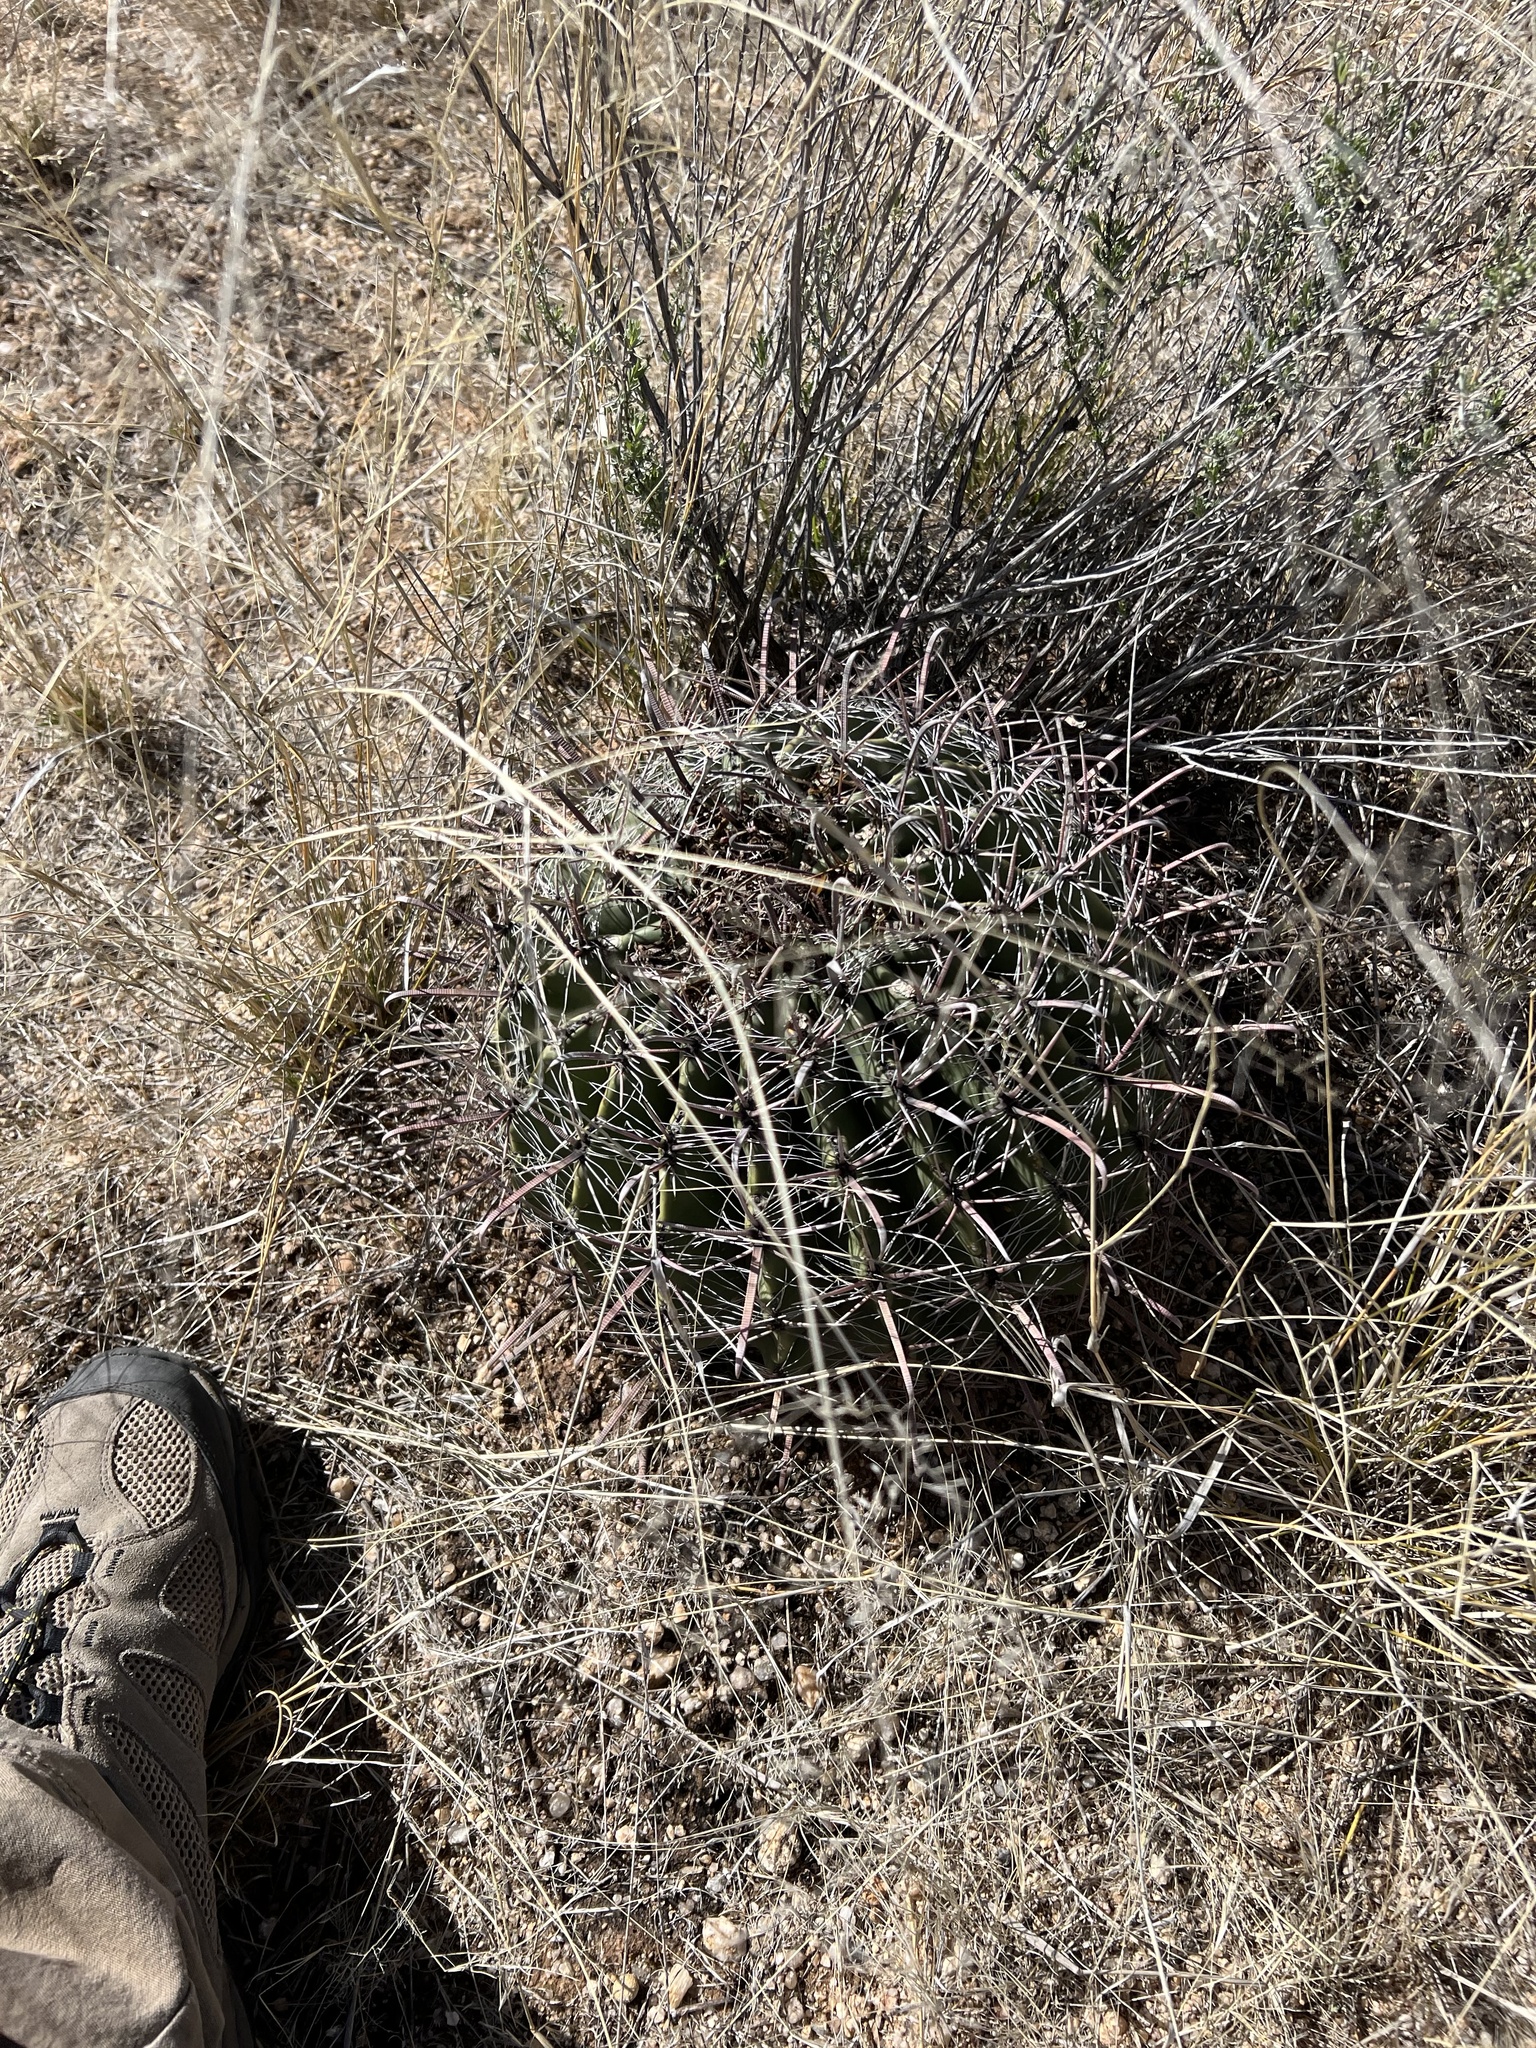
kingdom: Plantae
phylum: Tracheophyta
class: Magnoliopsida
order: Caryophyllales
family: Cactaceae
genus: Ferocactus
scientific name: Ferocactus wislizeni
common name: Candy barrel cactus
